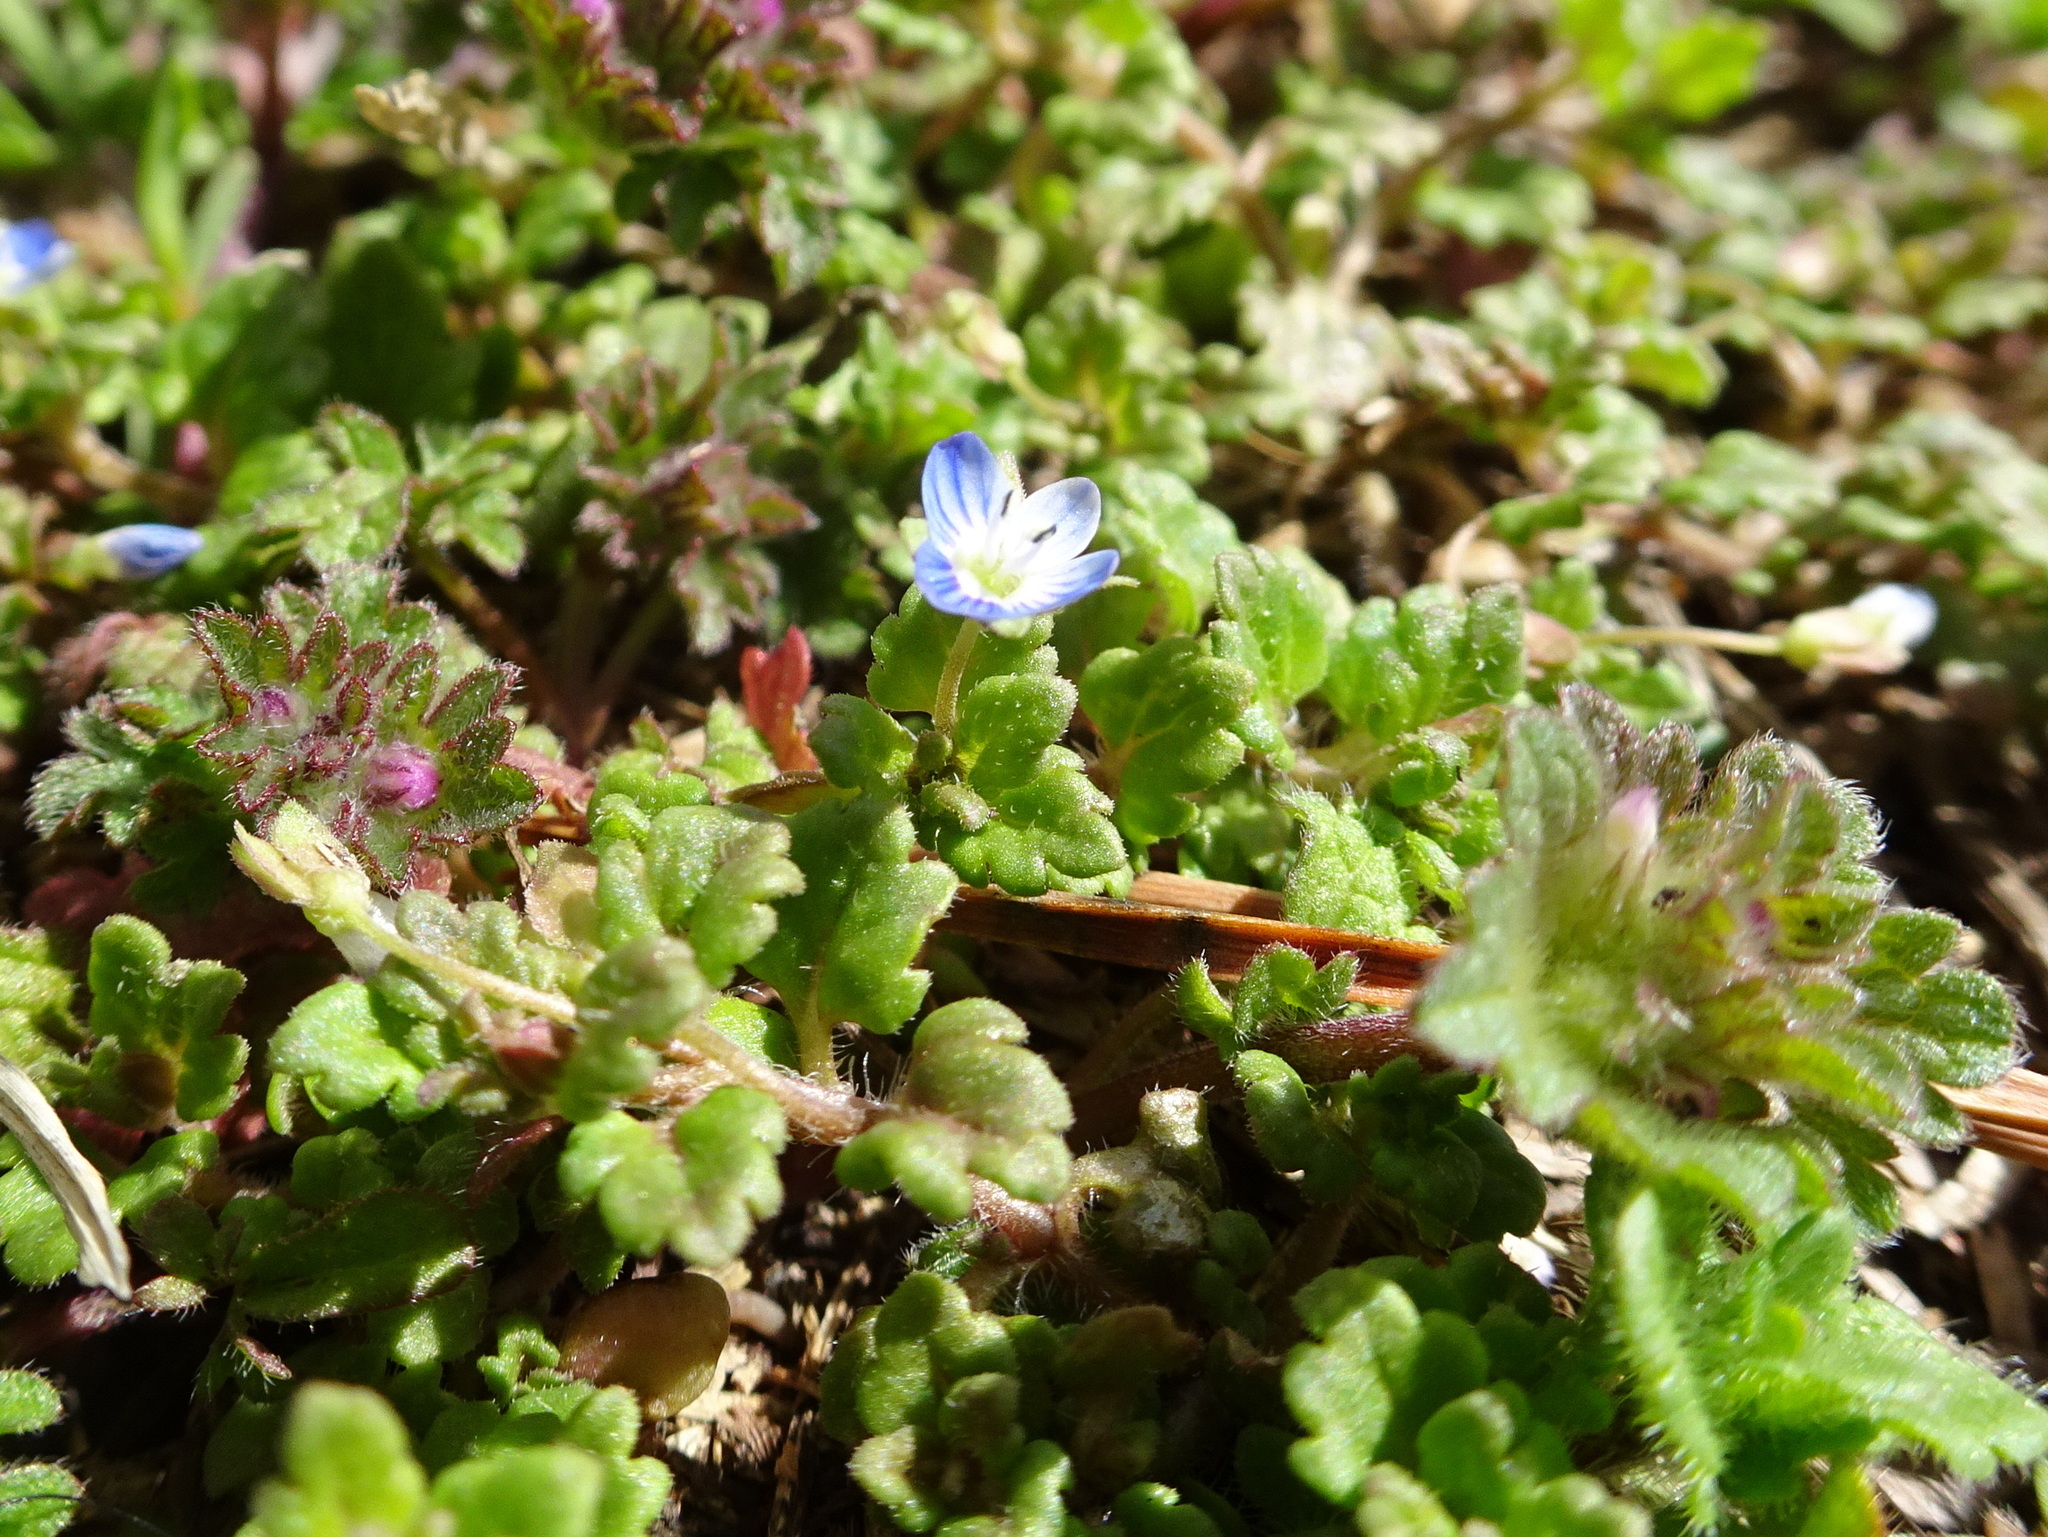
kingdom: Plantae
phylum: Tracheophyta
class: Magnoliopsida
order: Lamiales
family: Plantaginaceae
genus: Veronica
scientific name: Veronica polita
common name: Grey field-speedwell
